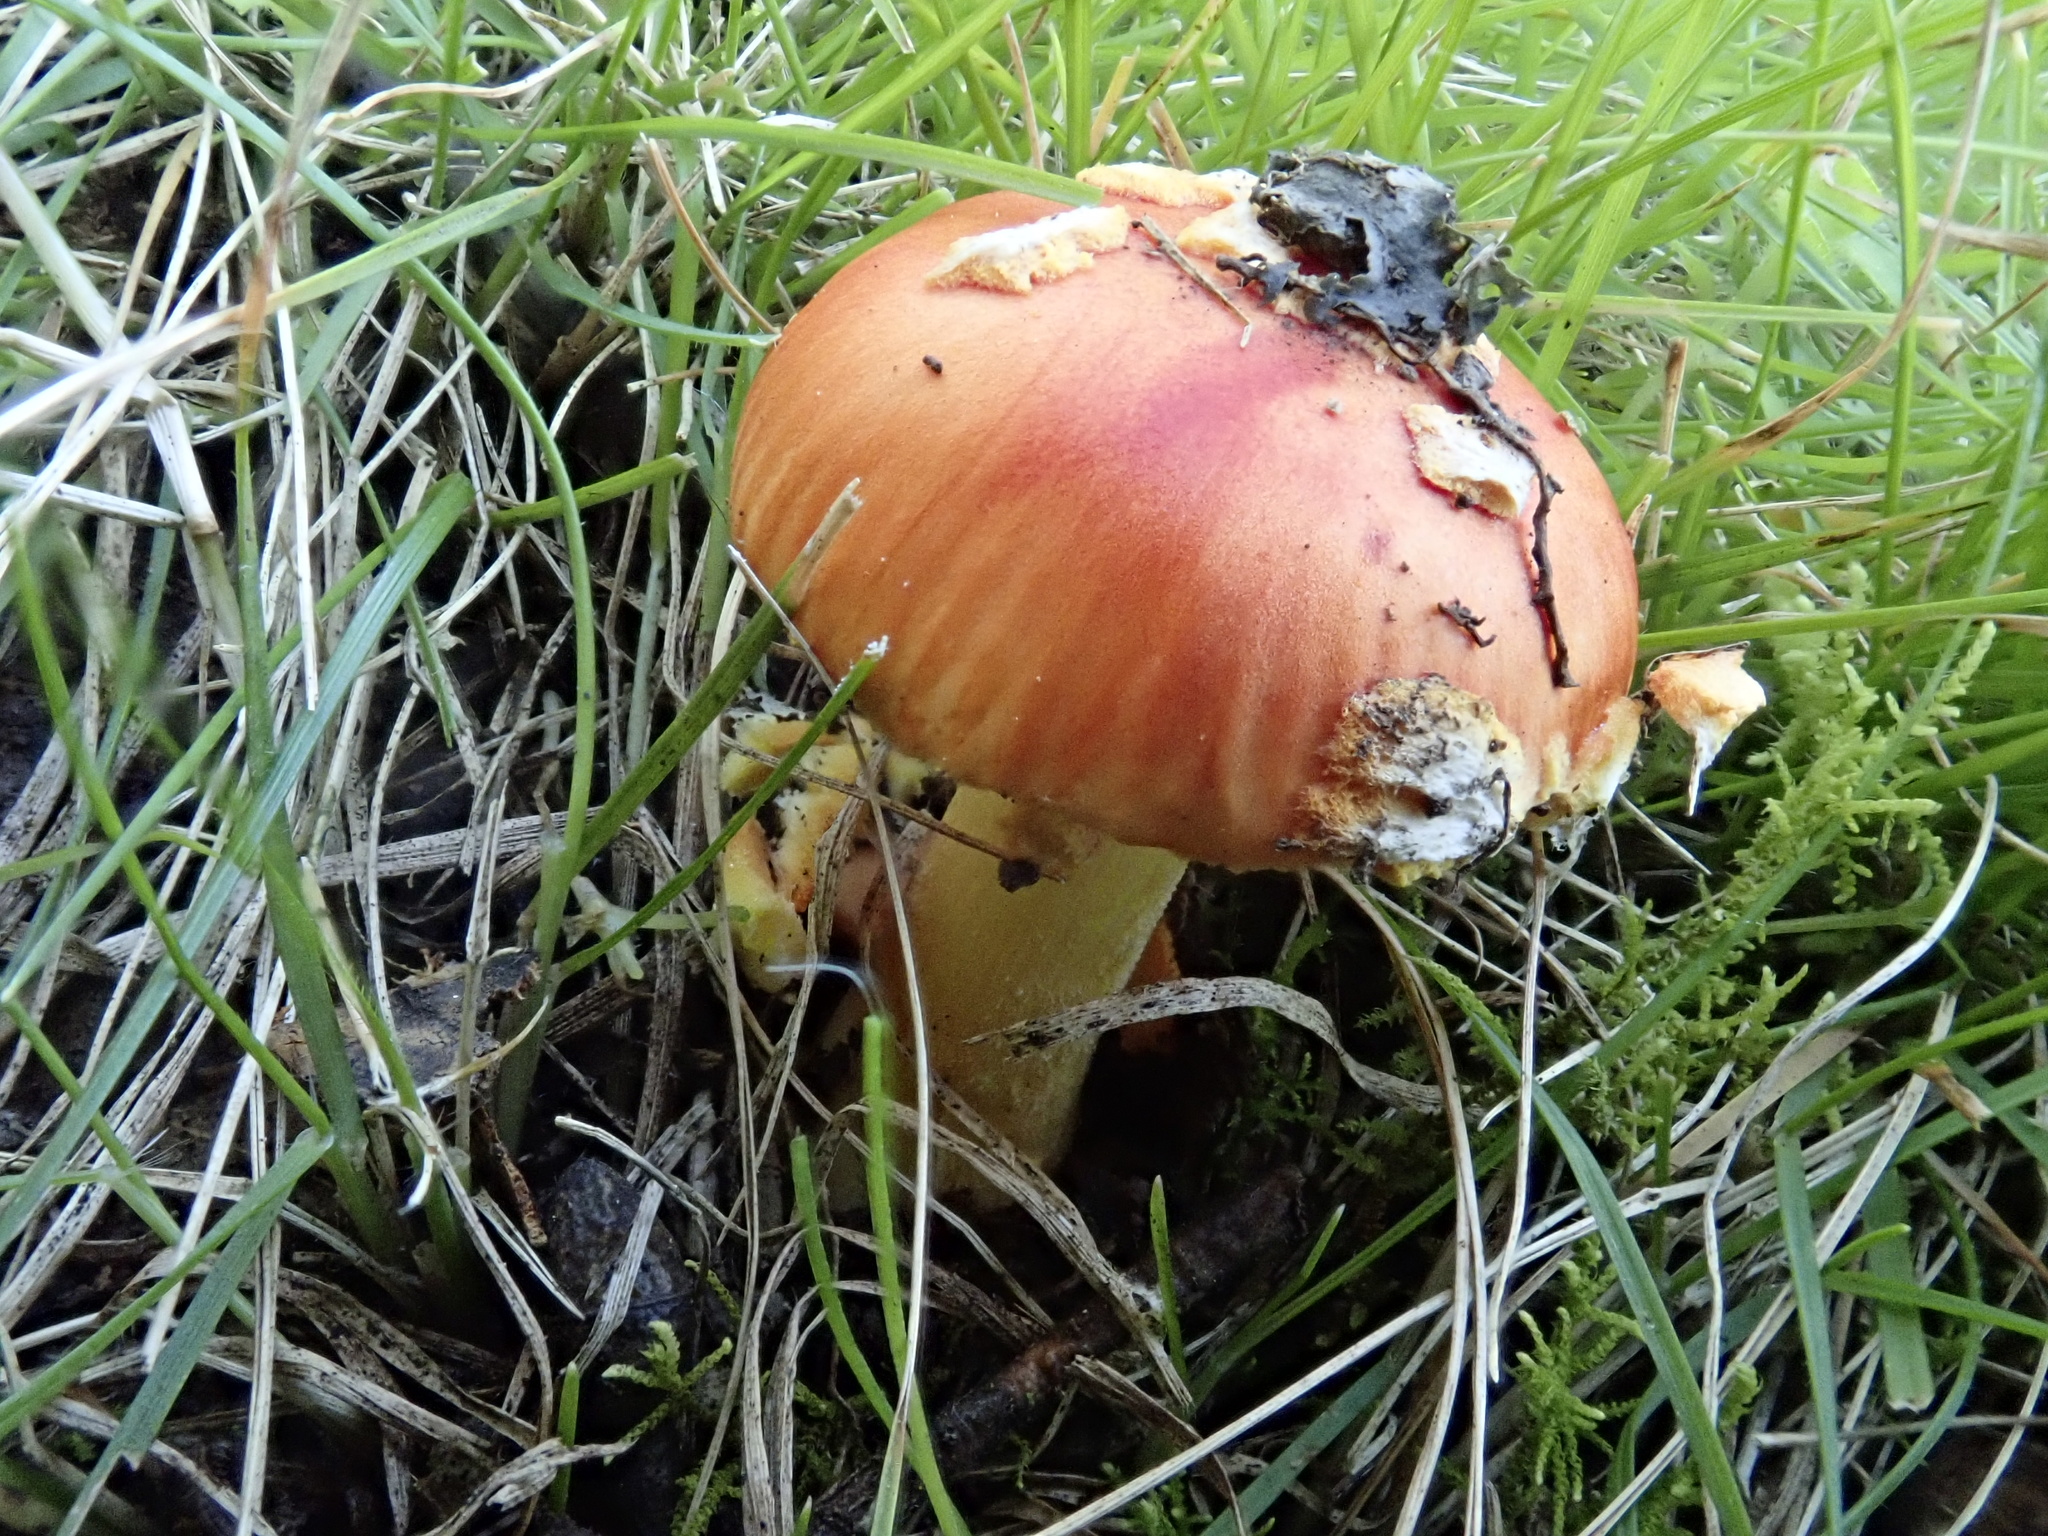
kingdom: Fungi
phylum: Basidiomycota
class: Agaricomycetes
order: Agaricales
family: Amanitaceae
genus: Amanita
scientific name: Amanita xanthocephala
